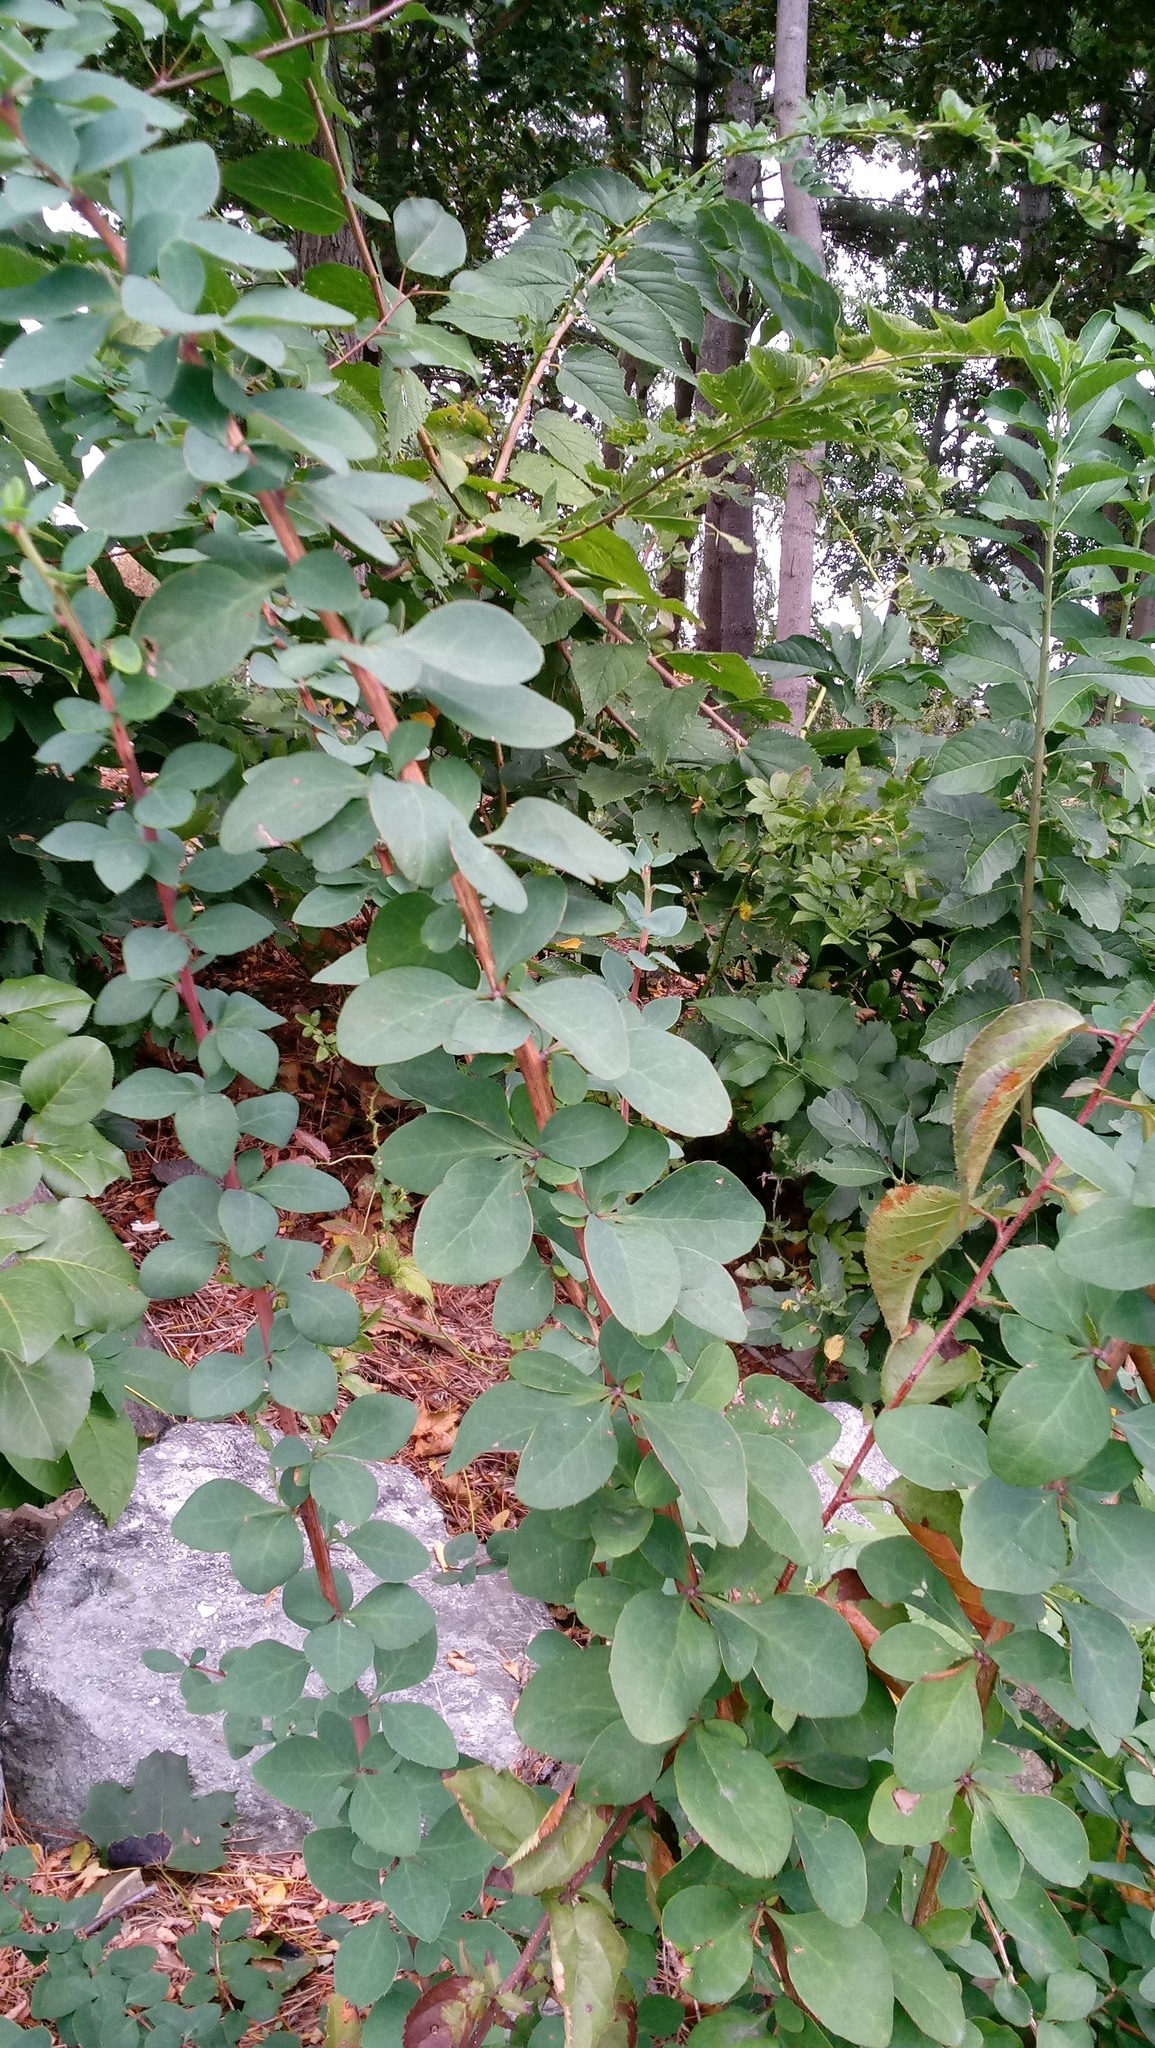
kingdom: Plantae
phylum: Tracheophyta
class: Magnoliopsida
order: Ranunculales
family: Berberidaceae
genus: Berberis
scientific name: Berberis vulgaris
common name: Barberry
